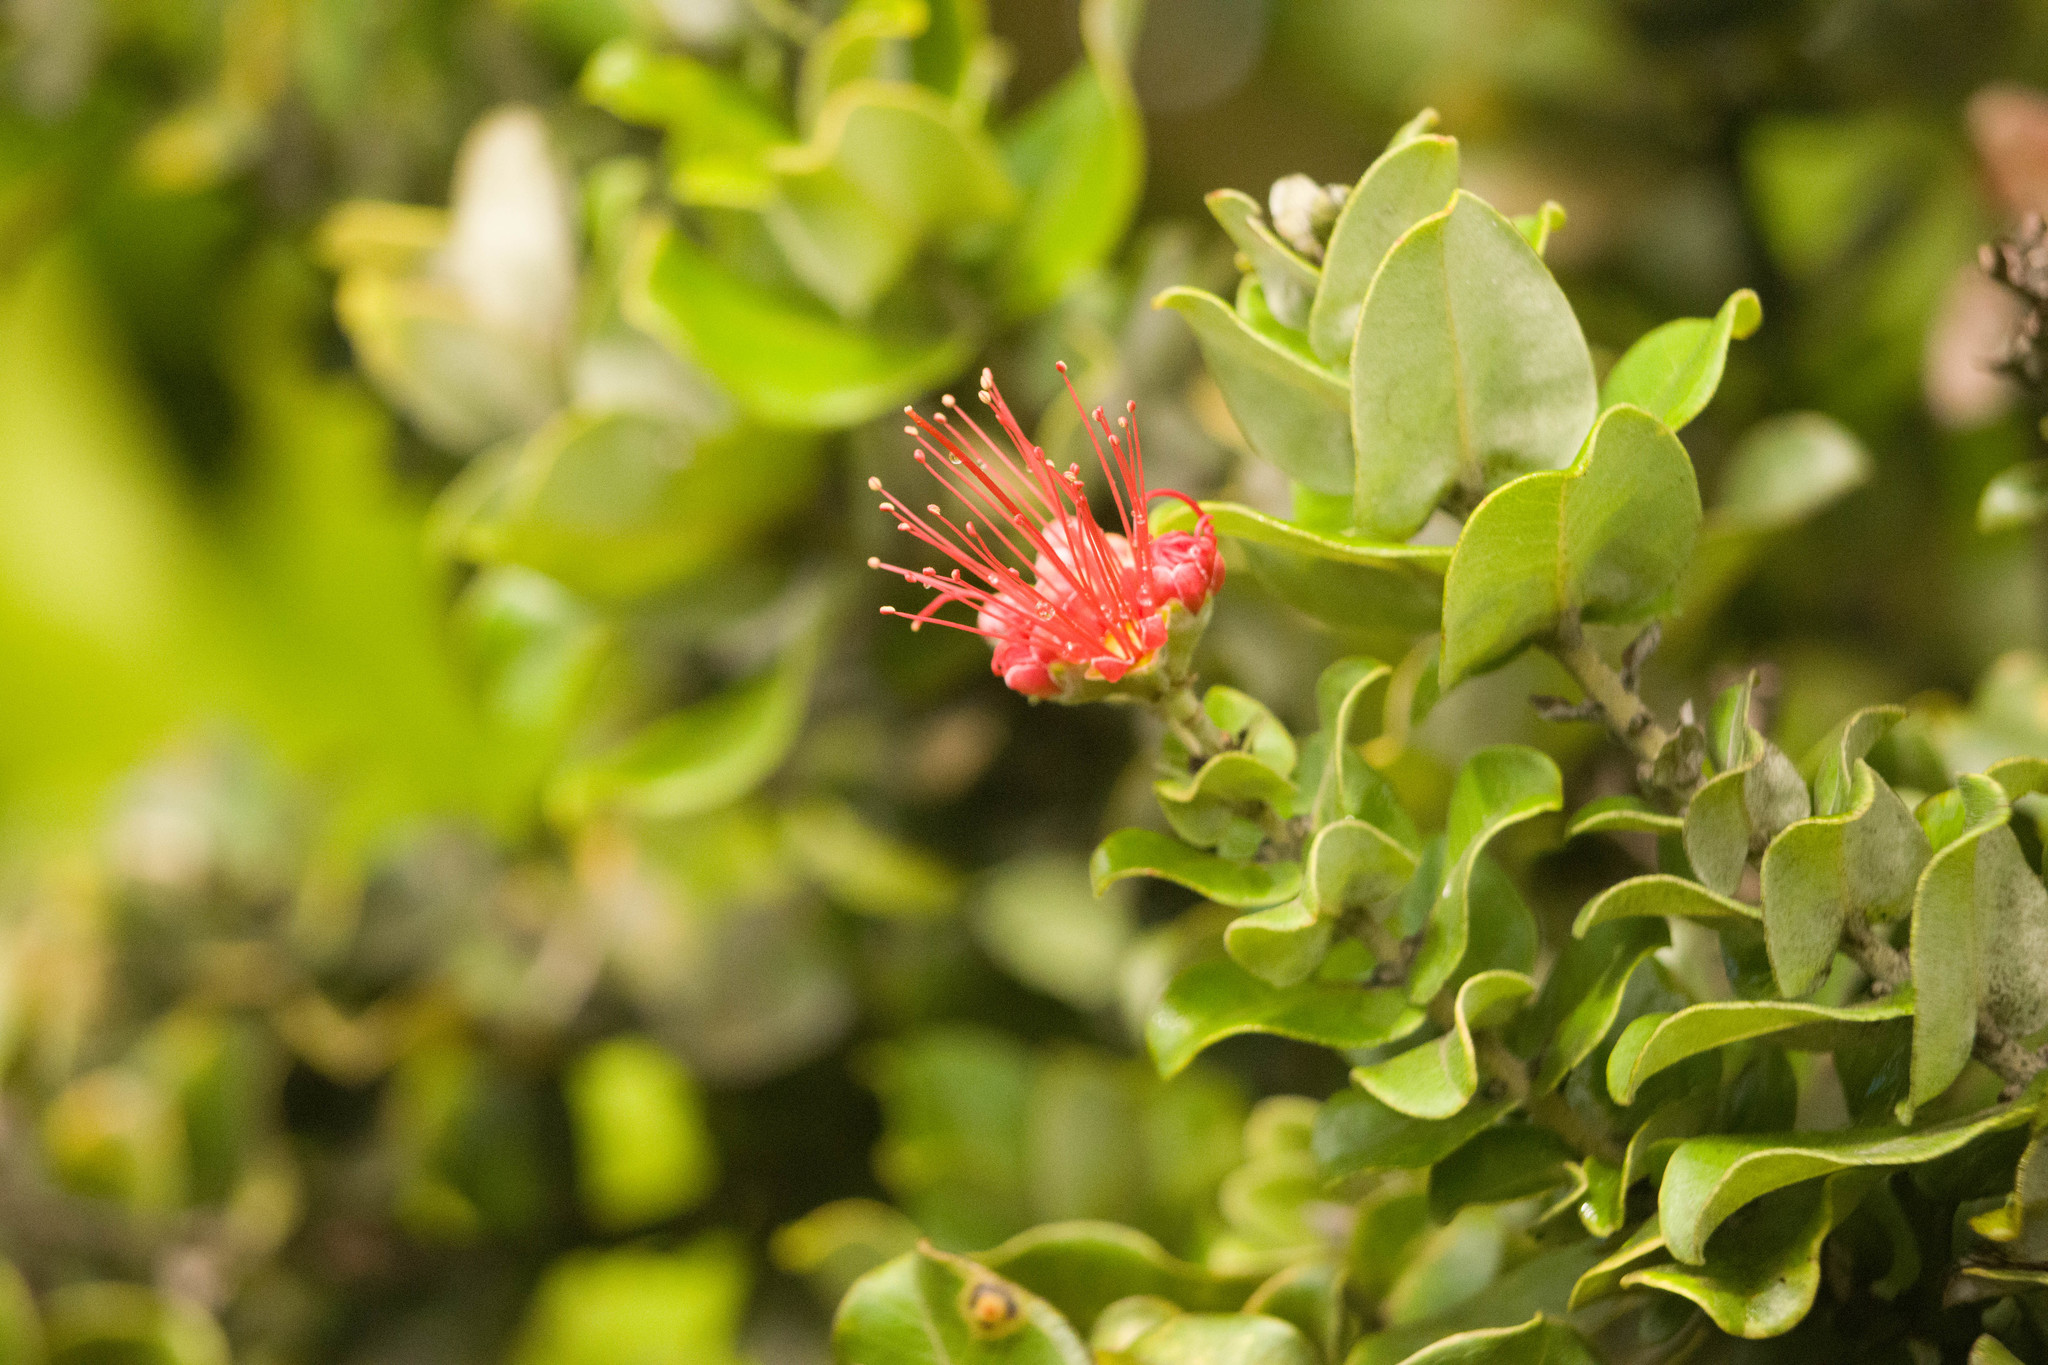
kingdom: Plantae
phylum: Tracheophyta
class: Magnoliopsida
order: Myrtales
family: Myrtaceae
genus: Metrosideros
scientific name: Metrosideros polymorpha
